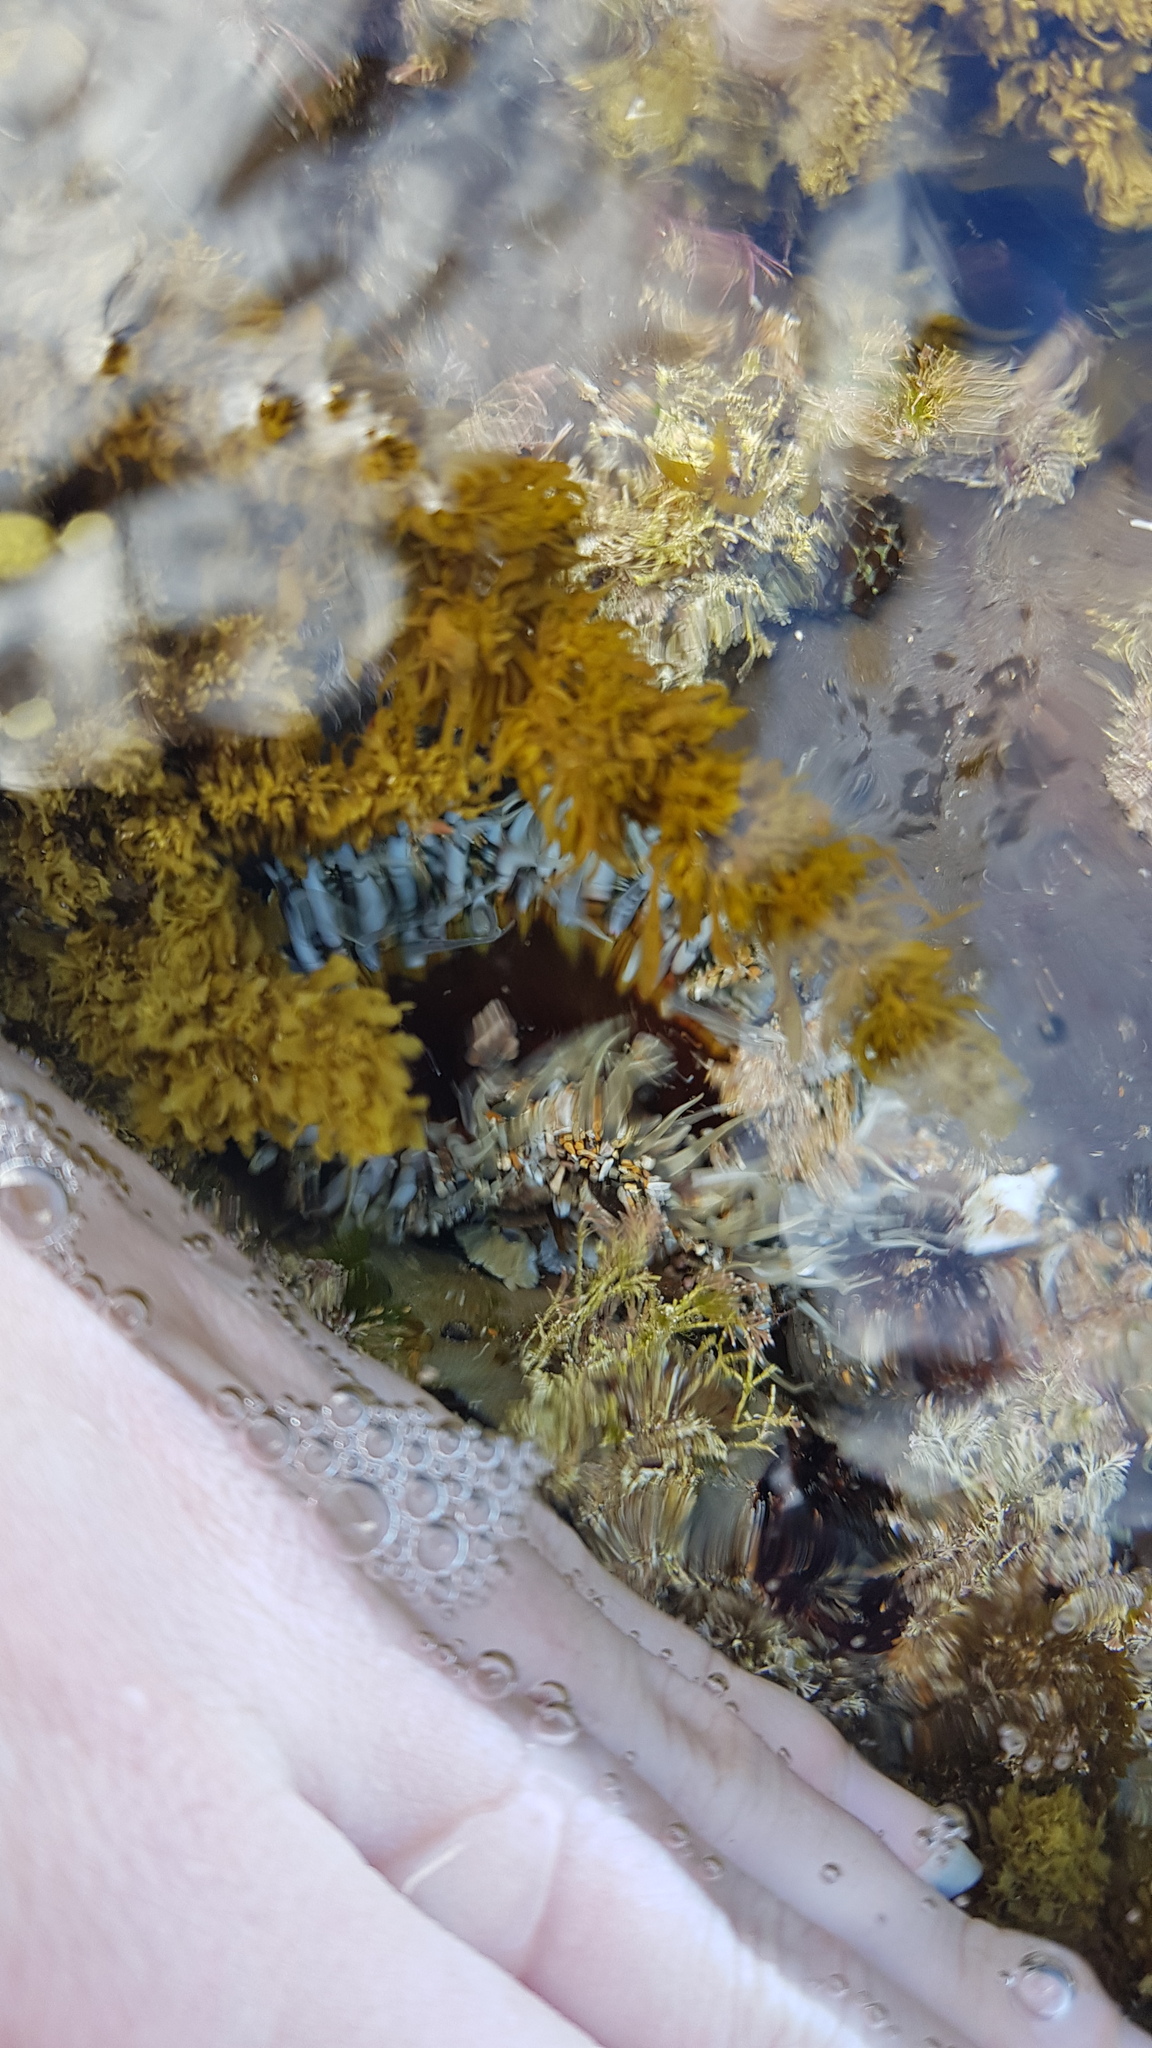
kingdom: Animalia
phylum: Cnidaria
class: Anthozoa
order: Actiniaria
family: Actiniidae
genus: Oulactis
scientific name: Oulactis muscosa
